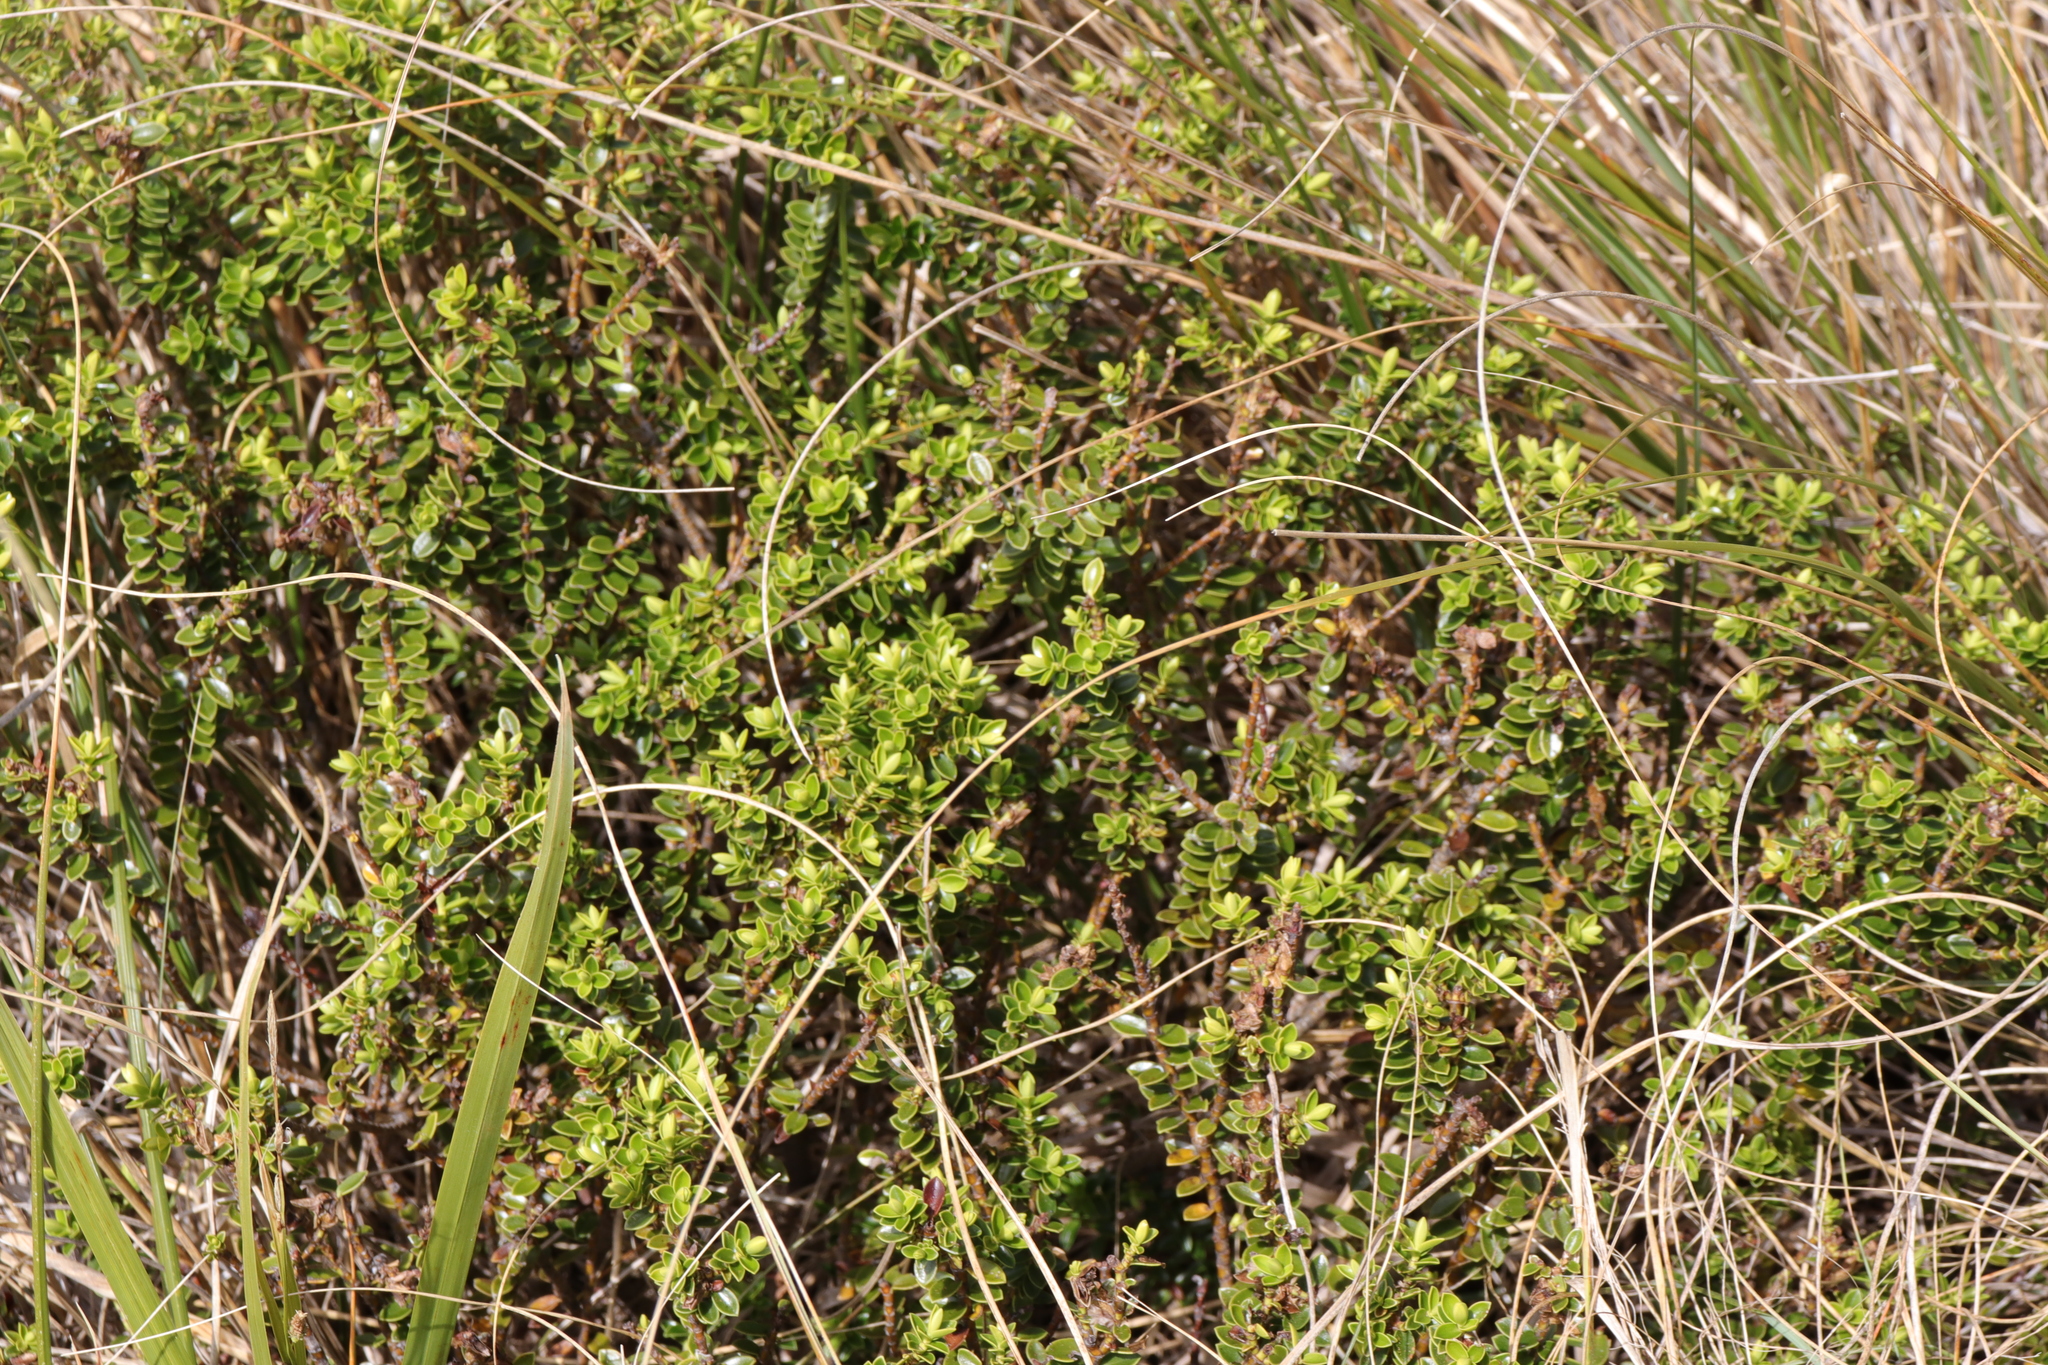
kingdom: Plantae
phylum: Tracheophyta
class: Magnoliopsida
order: Lamiales
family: Plantaginaceae
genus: Veronica
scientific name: Veronica odora
